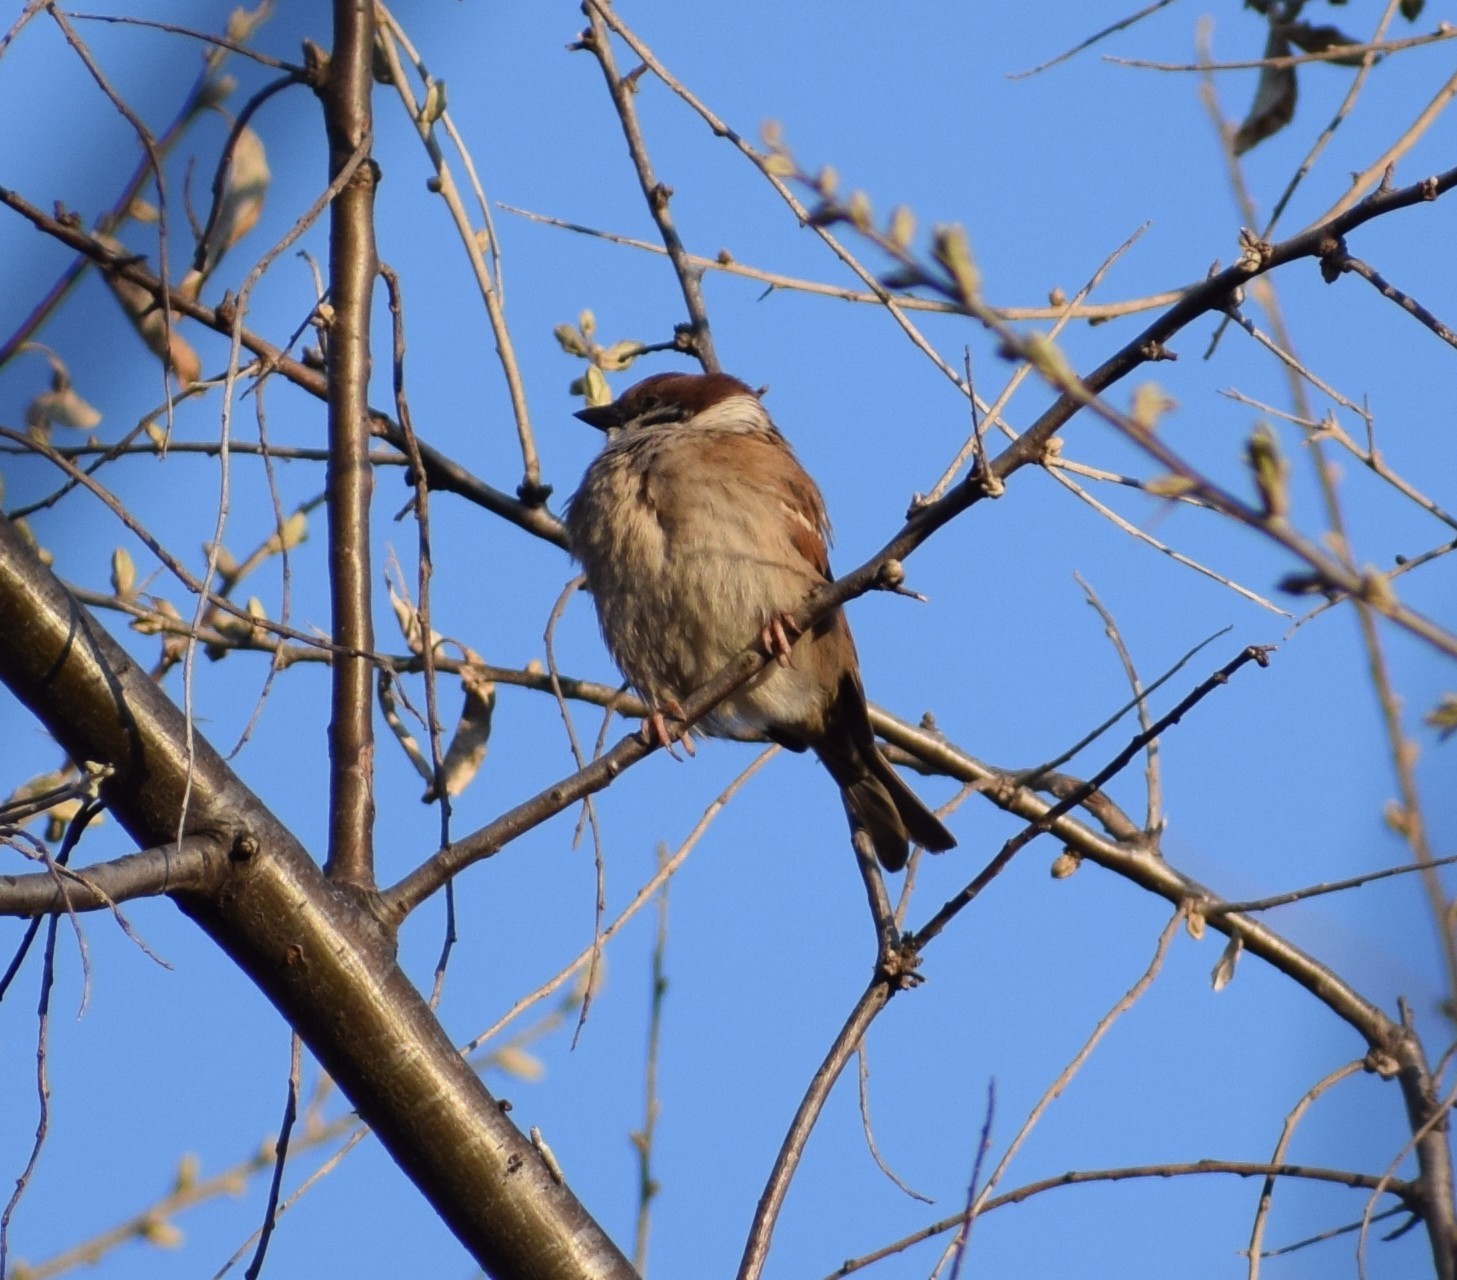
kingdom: Animalia
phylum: Chordata
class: Aves
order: Passeriformes
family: Passeridae
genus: Passer
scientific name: Passer montanus
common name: Eurasian tree sparrow
